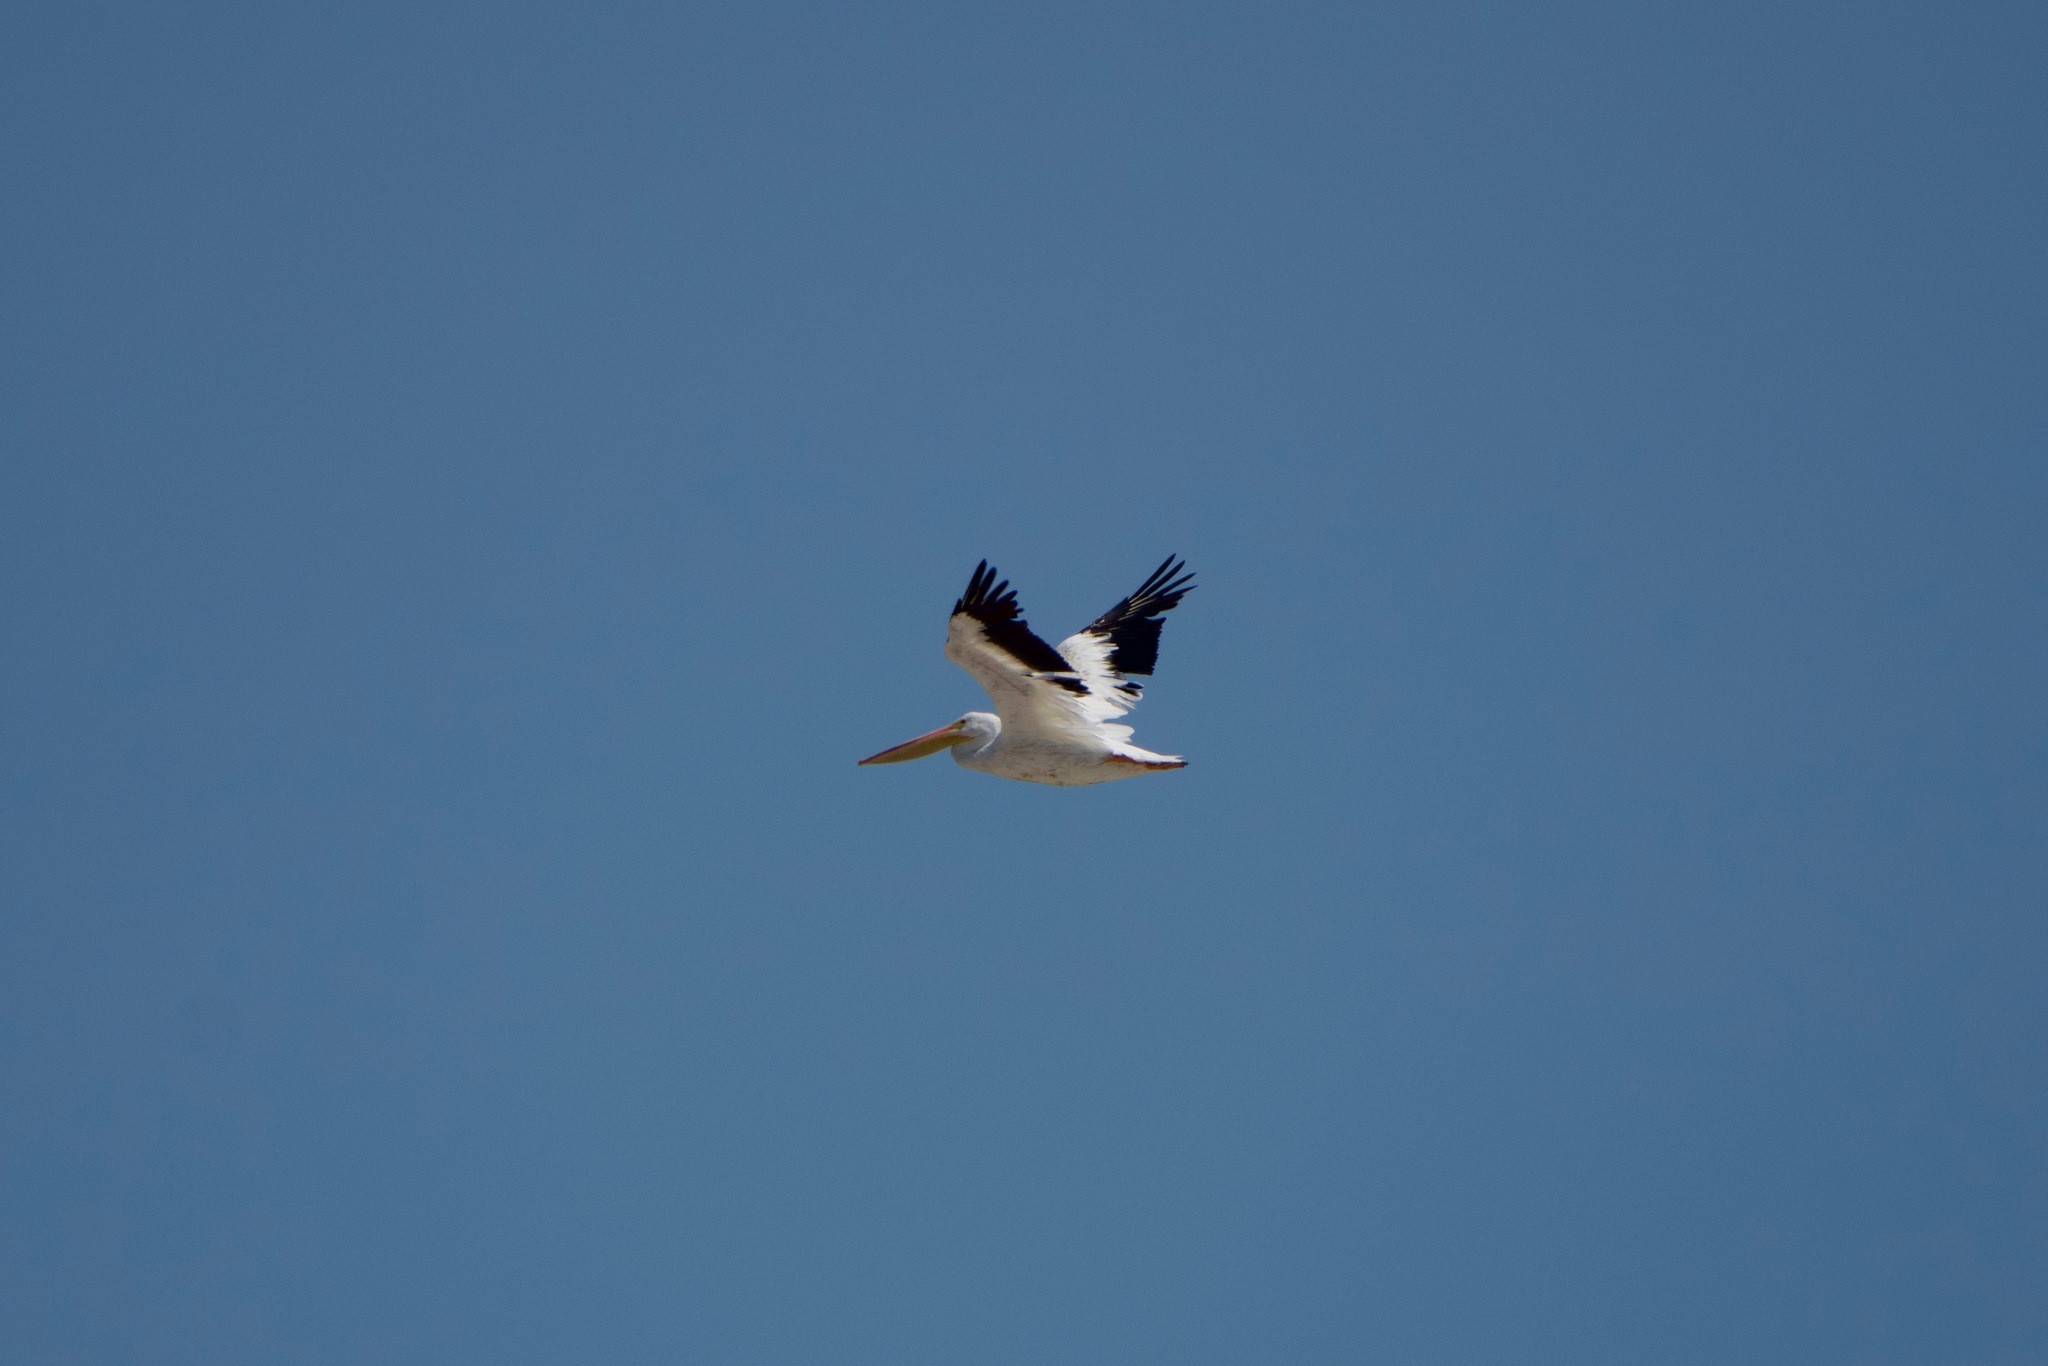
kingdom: Animalia
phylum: Chordata
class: Aves
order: Pelecaniformes
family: Pelecanidae
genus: Pelecanus
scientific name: Pelecanus erythrorhynchos
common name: American white pelican
